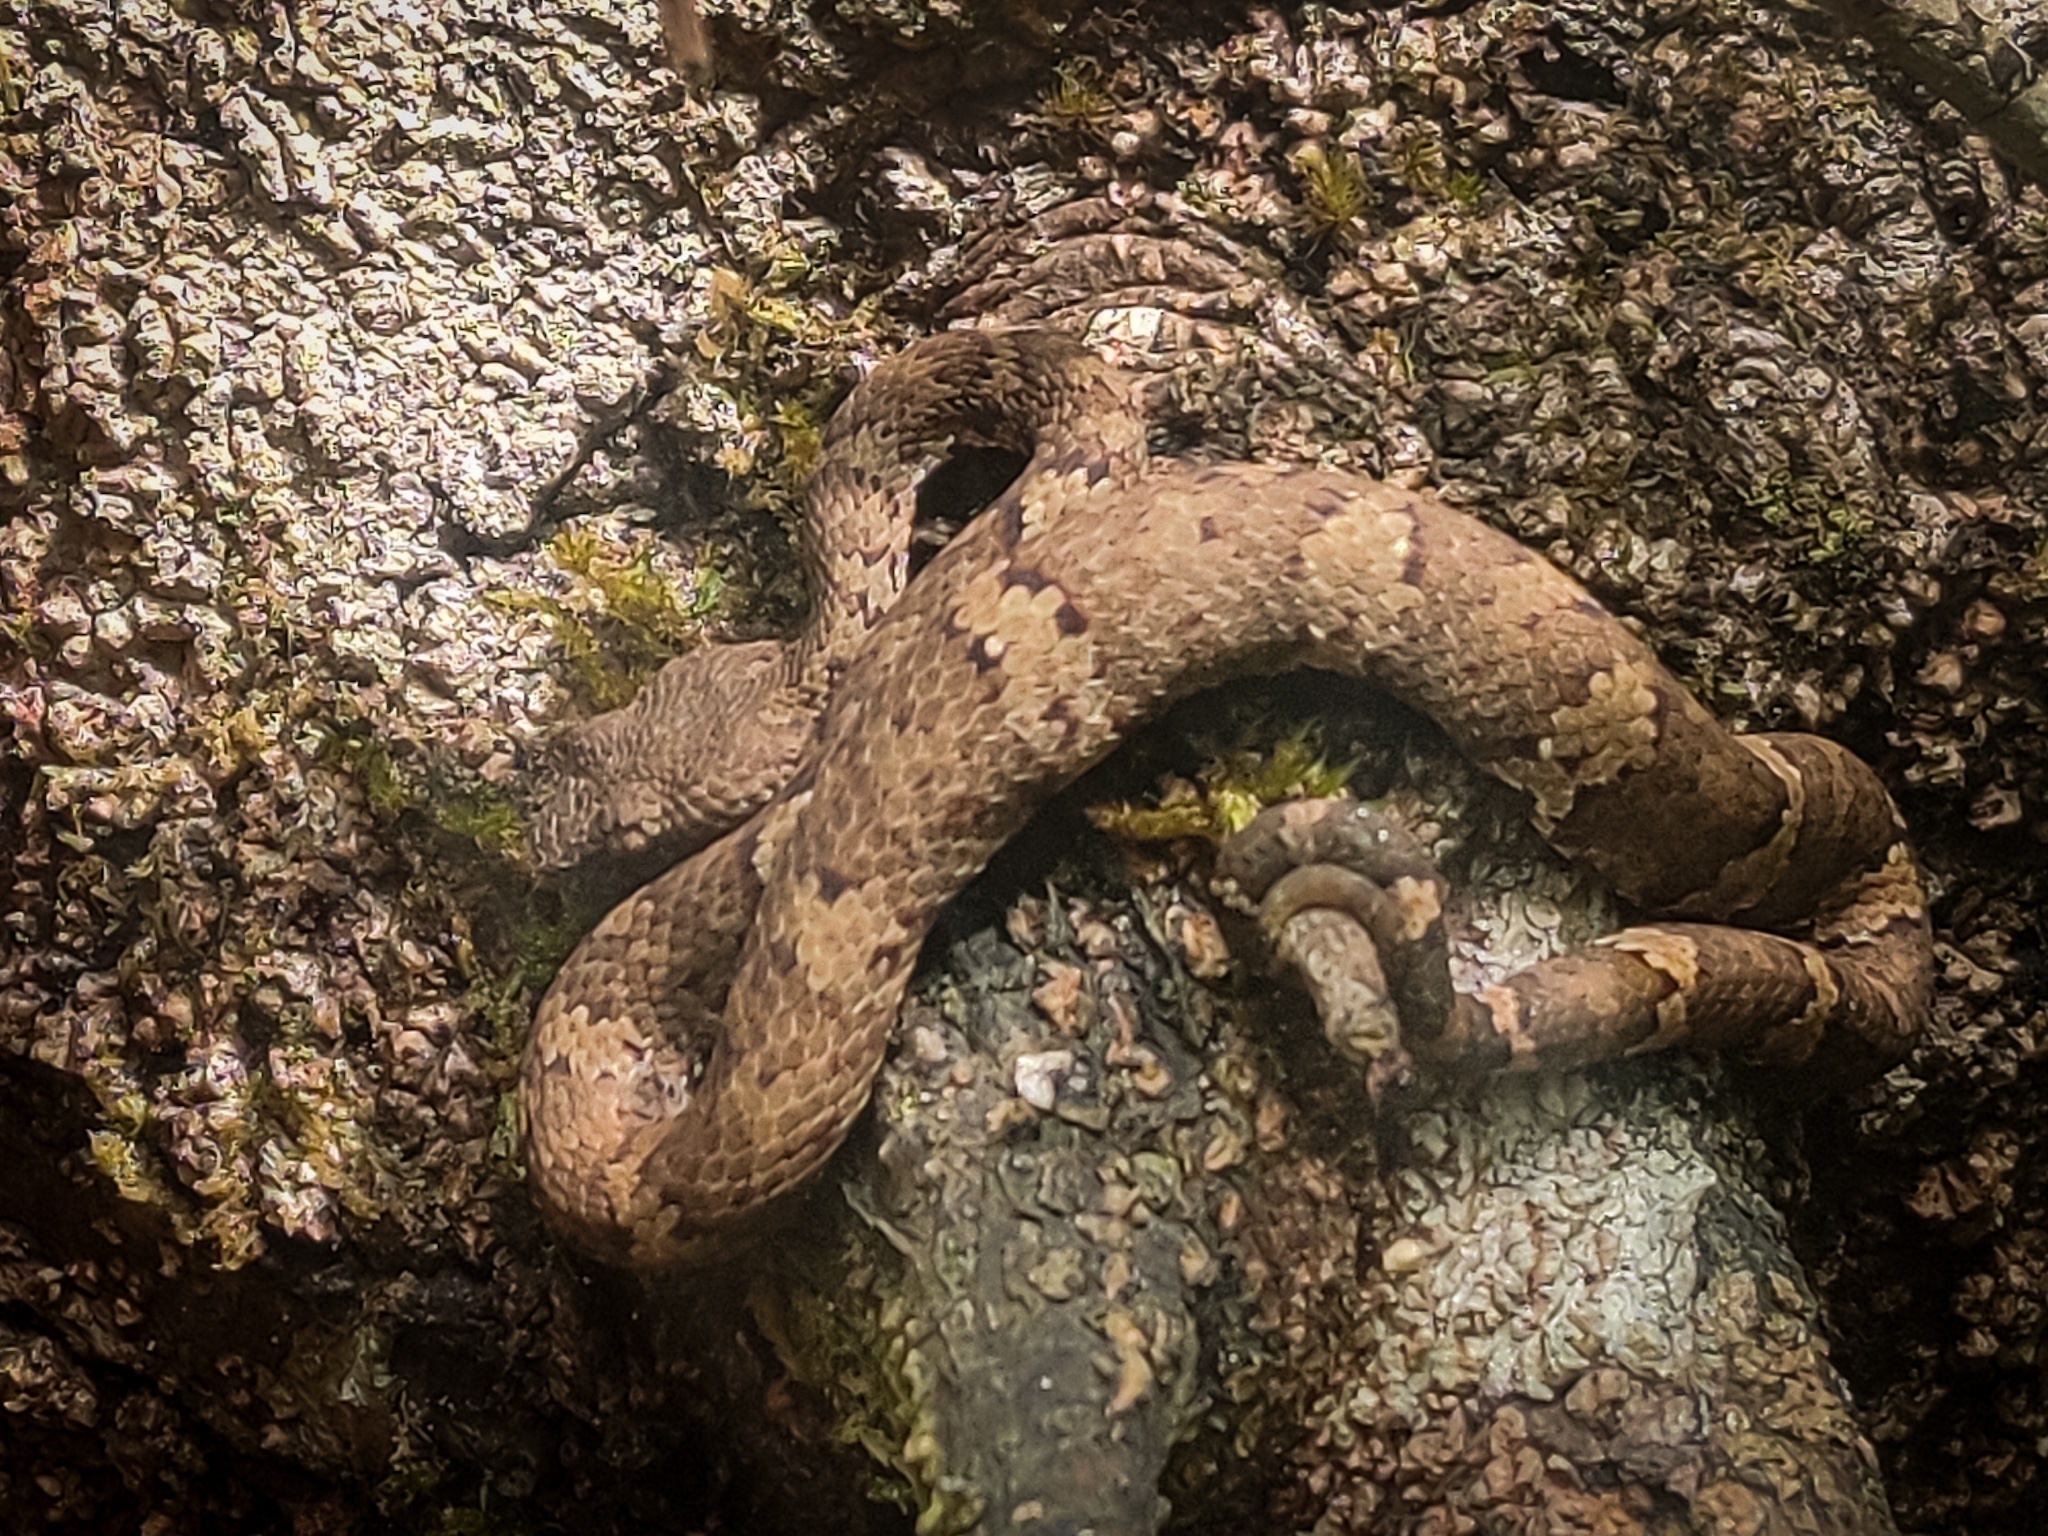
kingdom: Animalia
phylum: Chordata
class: Squamata
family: Viperidae
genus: Craspedocephalus
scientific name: Craspedocephalus malabaricus
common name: Malabarian pit viper
